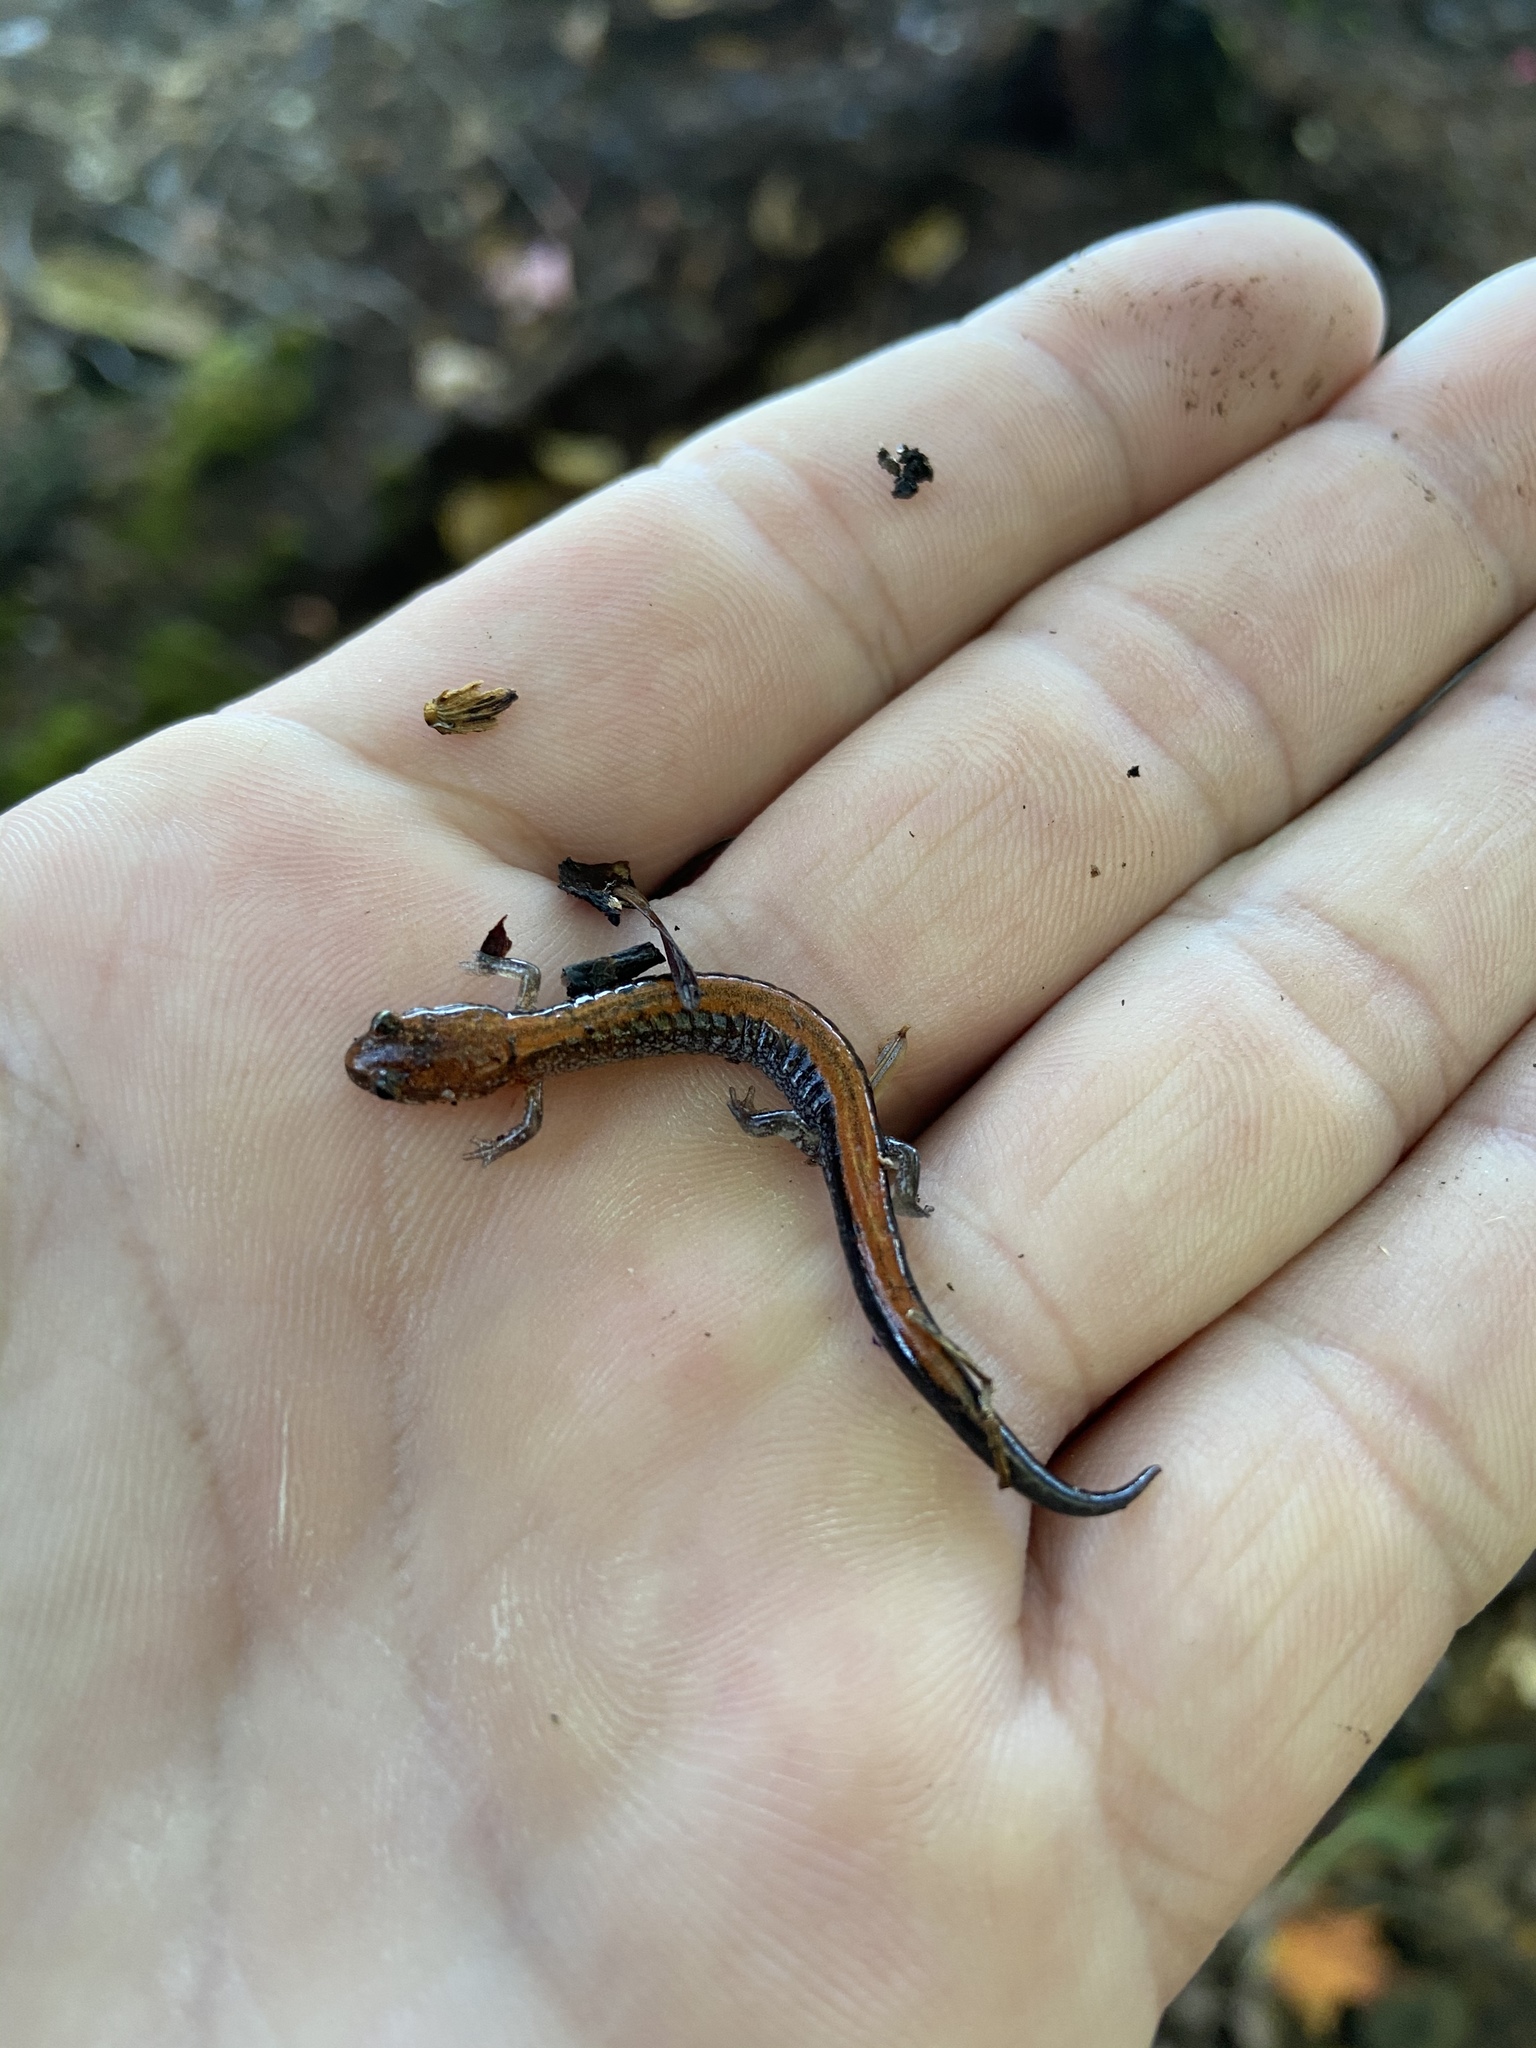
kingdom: Animalia
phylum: Chordata
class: Amphibia
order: Caudata
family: Plethodontidae
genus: Plethodon
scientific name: Plethodon cinereus
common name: Redback salamander
